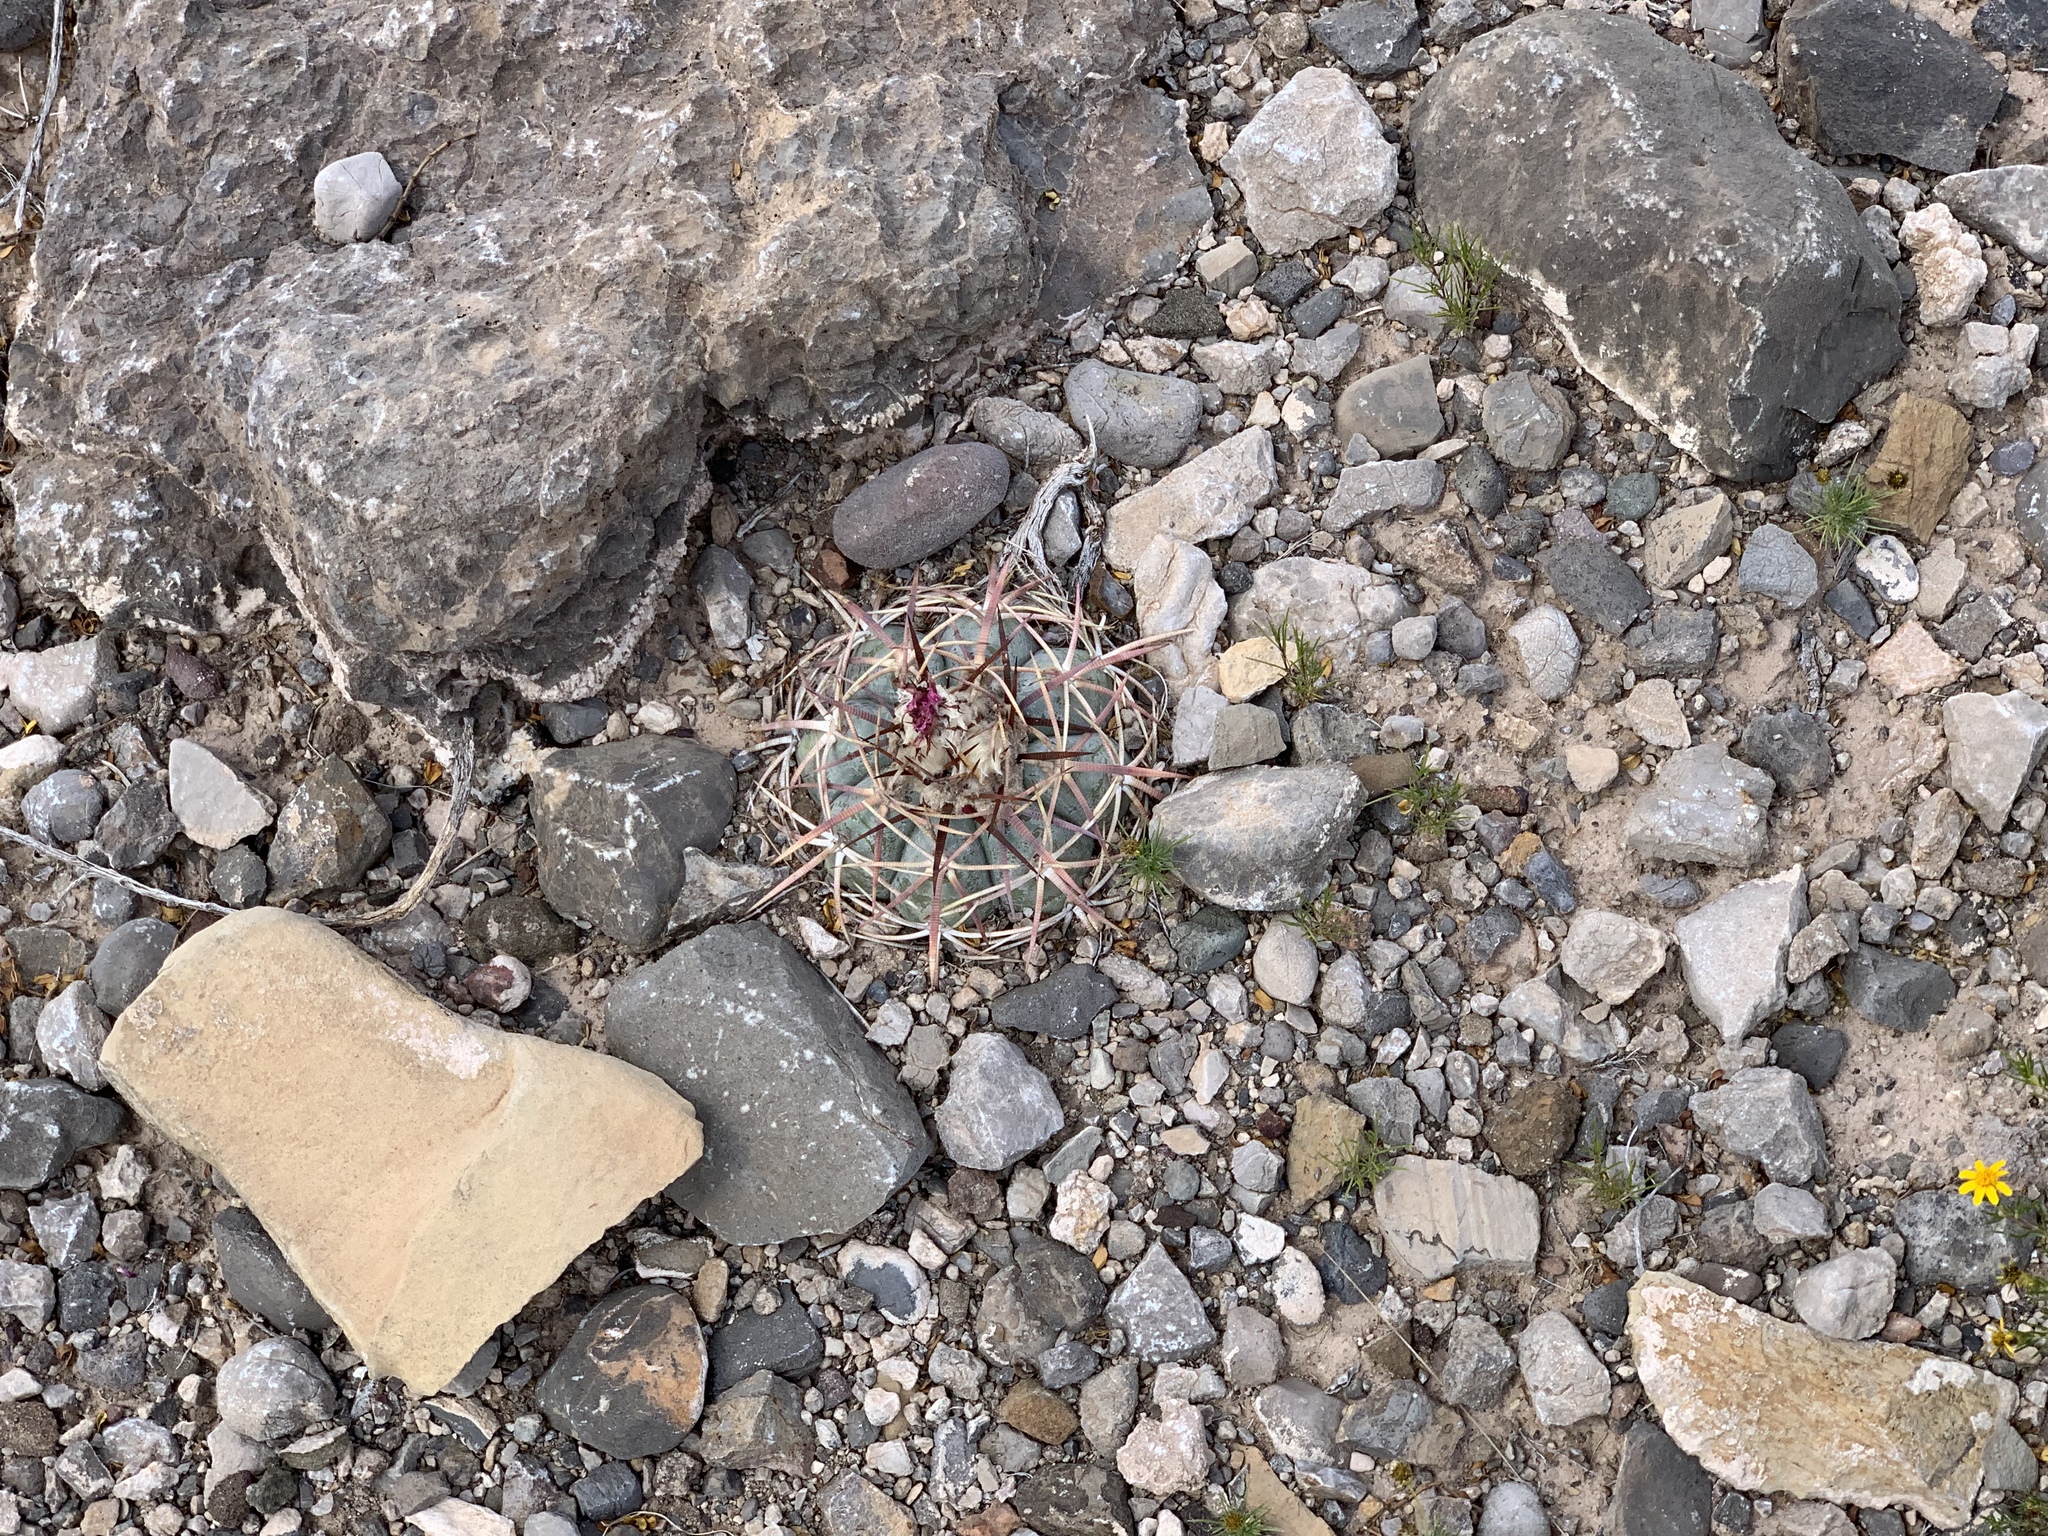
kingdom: Plantae
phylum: Tracheophyta
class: Magnoliopsida
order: Caryophyllales
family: Cactaceae
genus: Echinocactus
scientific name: Echinocactus horizonthalonius
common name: Devilshead
